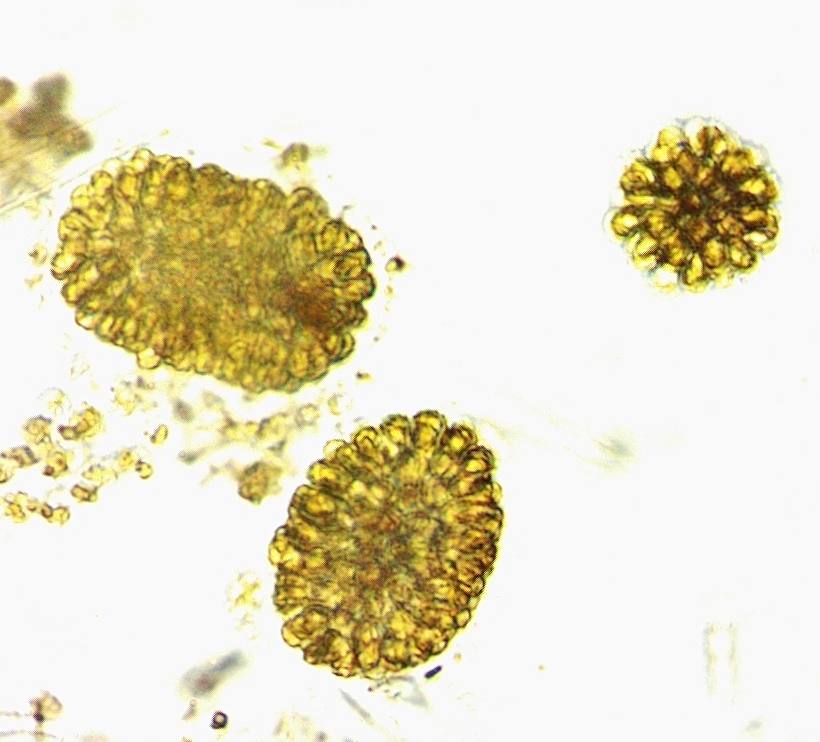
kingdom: Chromista
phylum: Ochrophyta
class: Synurophyceae
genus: Synura
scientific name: Synura
